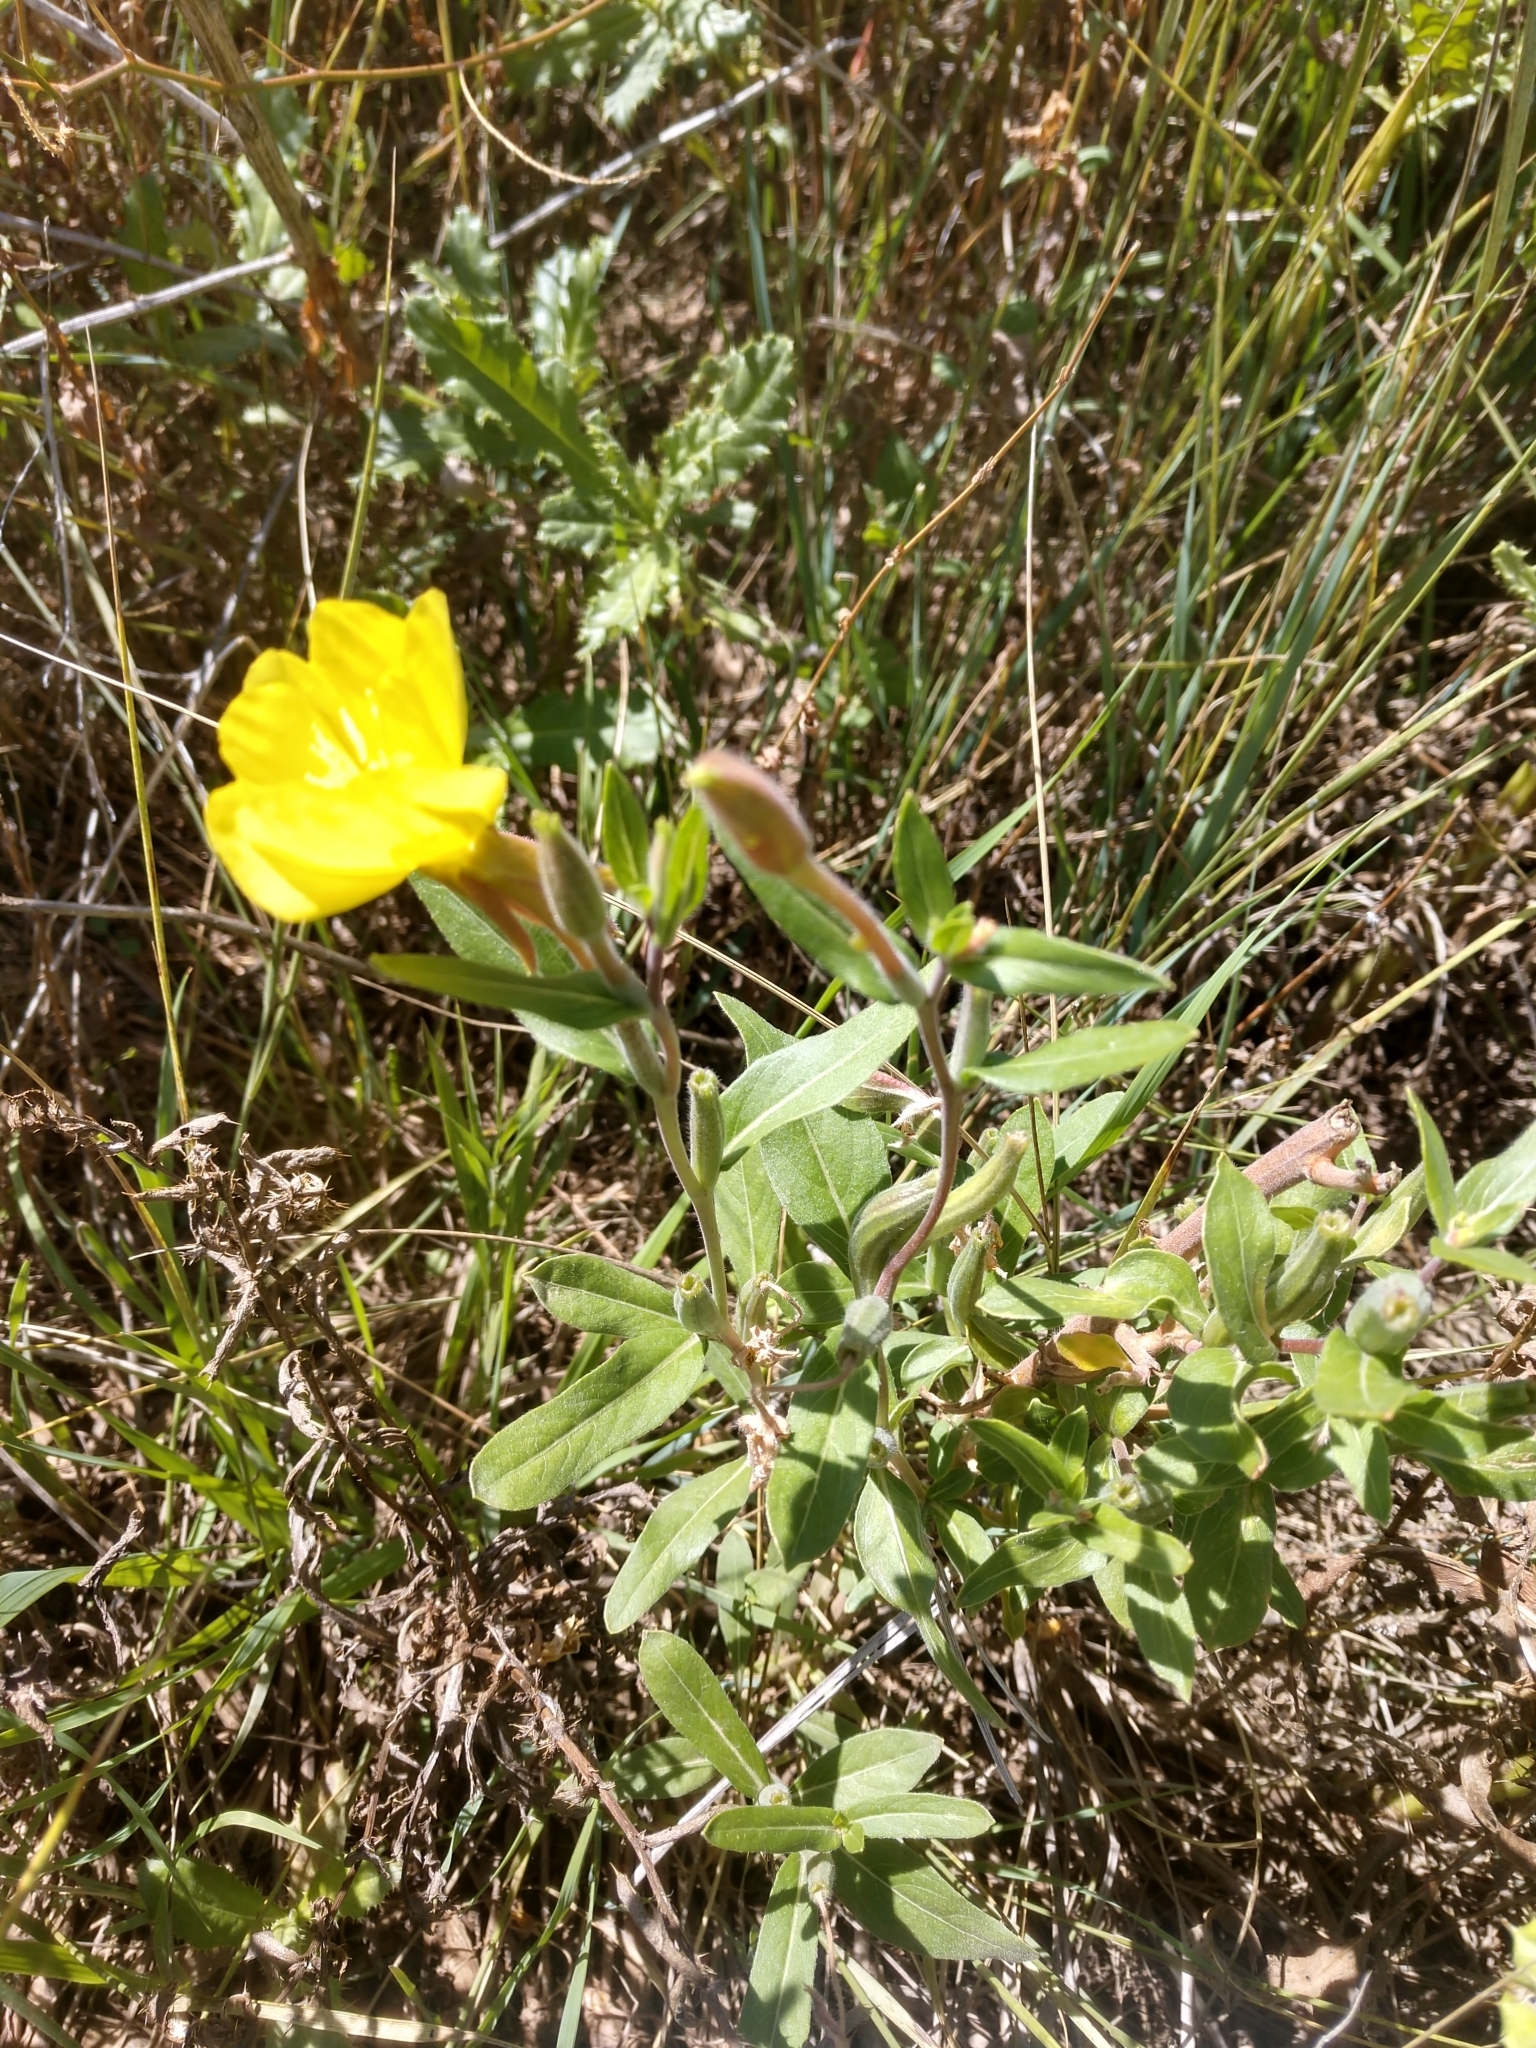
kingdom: Plantae
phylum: Tracheophyta
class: Magnoliopsida
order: Myrtales
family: Onagraceae
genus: Oenothera
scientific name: Oenothera villosa
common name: Hairy evening-primrose
